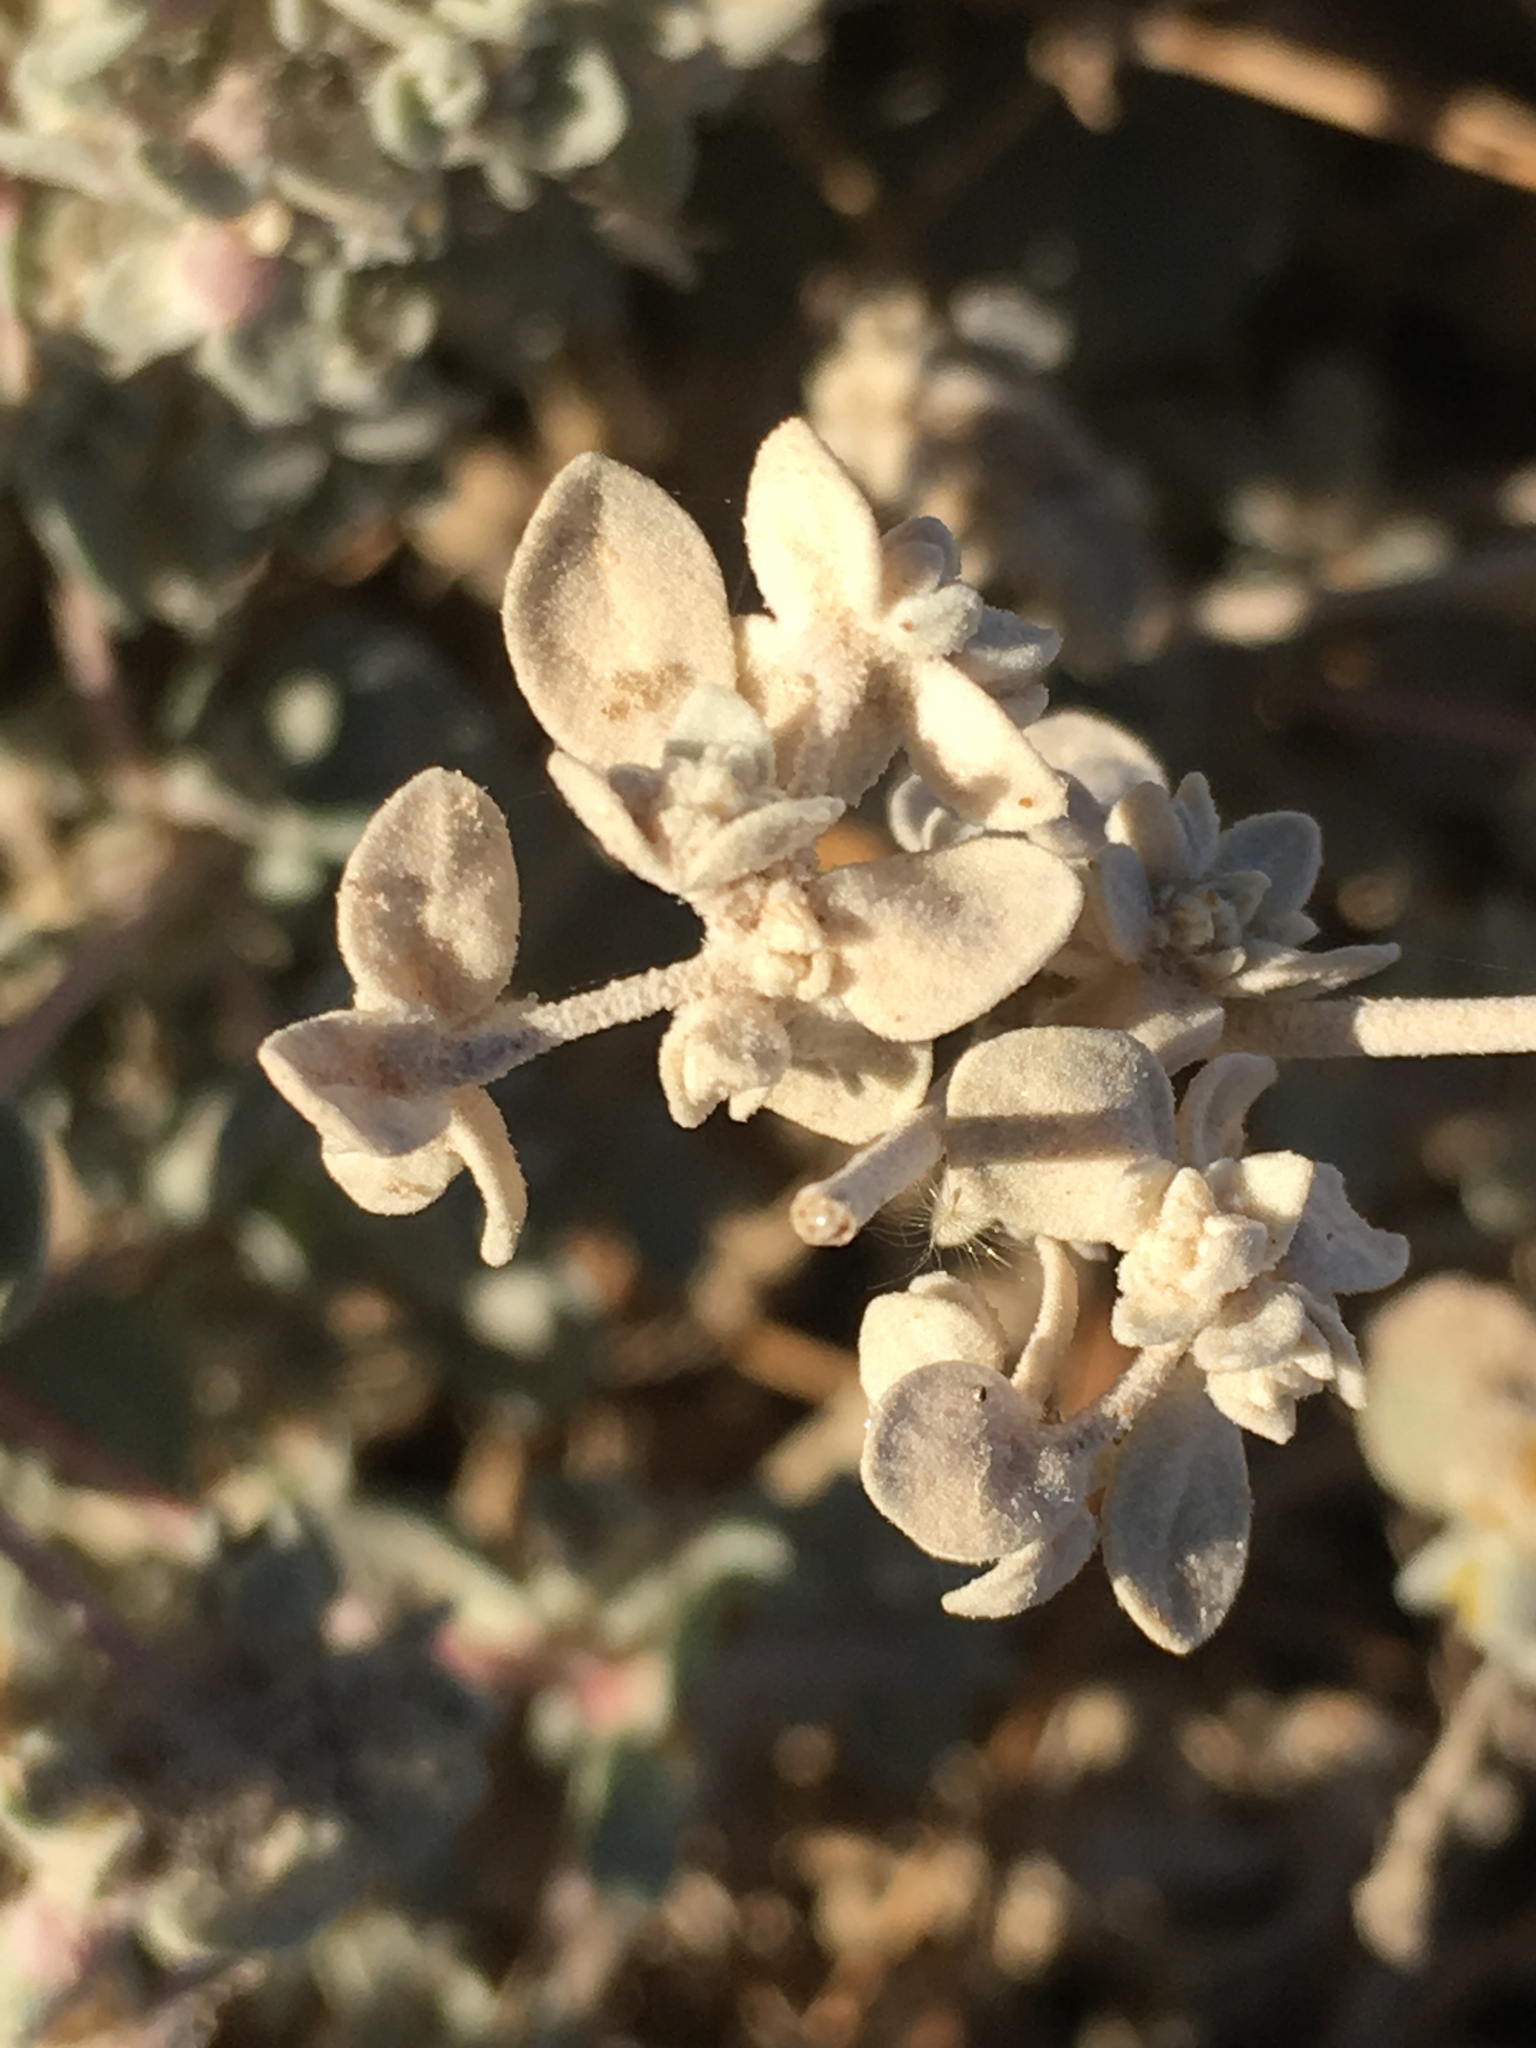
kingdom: Plantae
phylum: Tracheophyta
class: Magnoliopsida
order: Caryophyllales
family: Amaranthaceae
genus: Tidestromia
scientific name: Tidestromia suffruticosa
